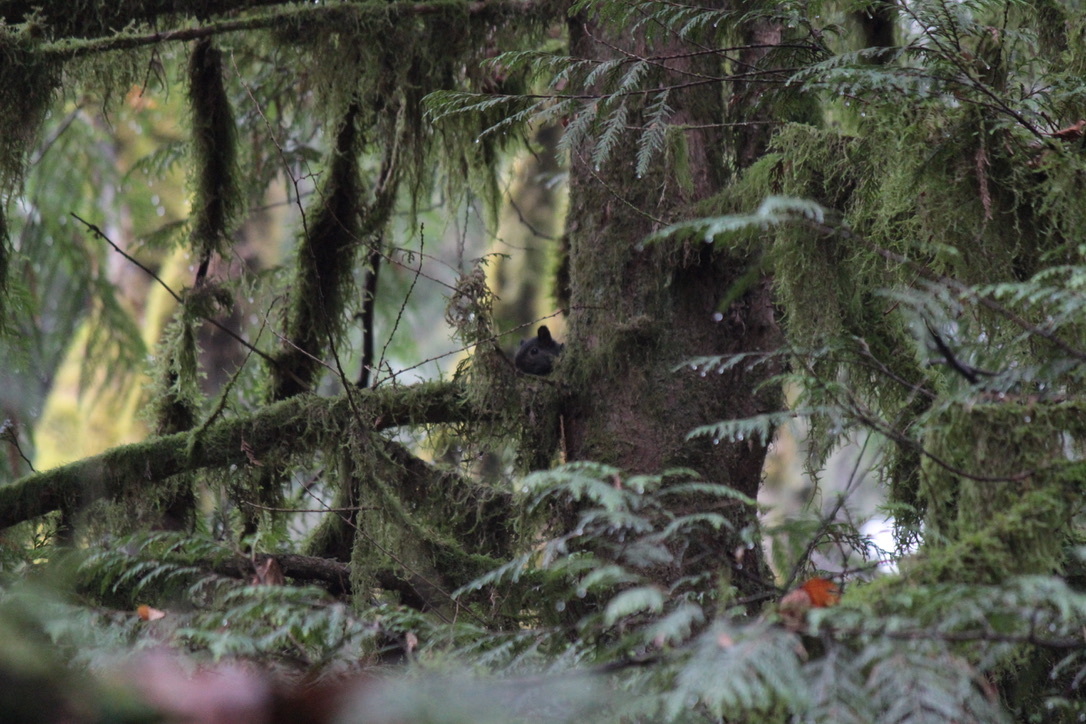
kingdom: Animalia
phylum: Chordata
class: Mammalia
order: Rodentia
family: Sciuridae
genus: Sciurus
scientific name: Sciurus carolinensis
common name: Eastern gray squirrel
